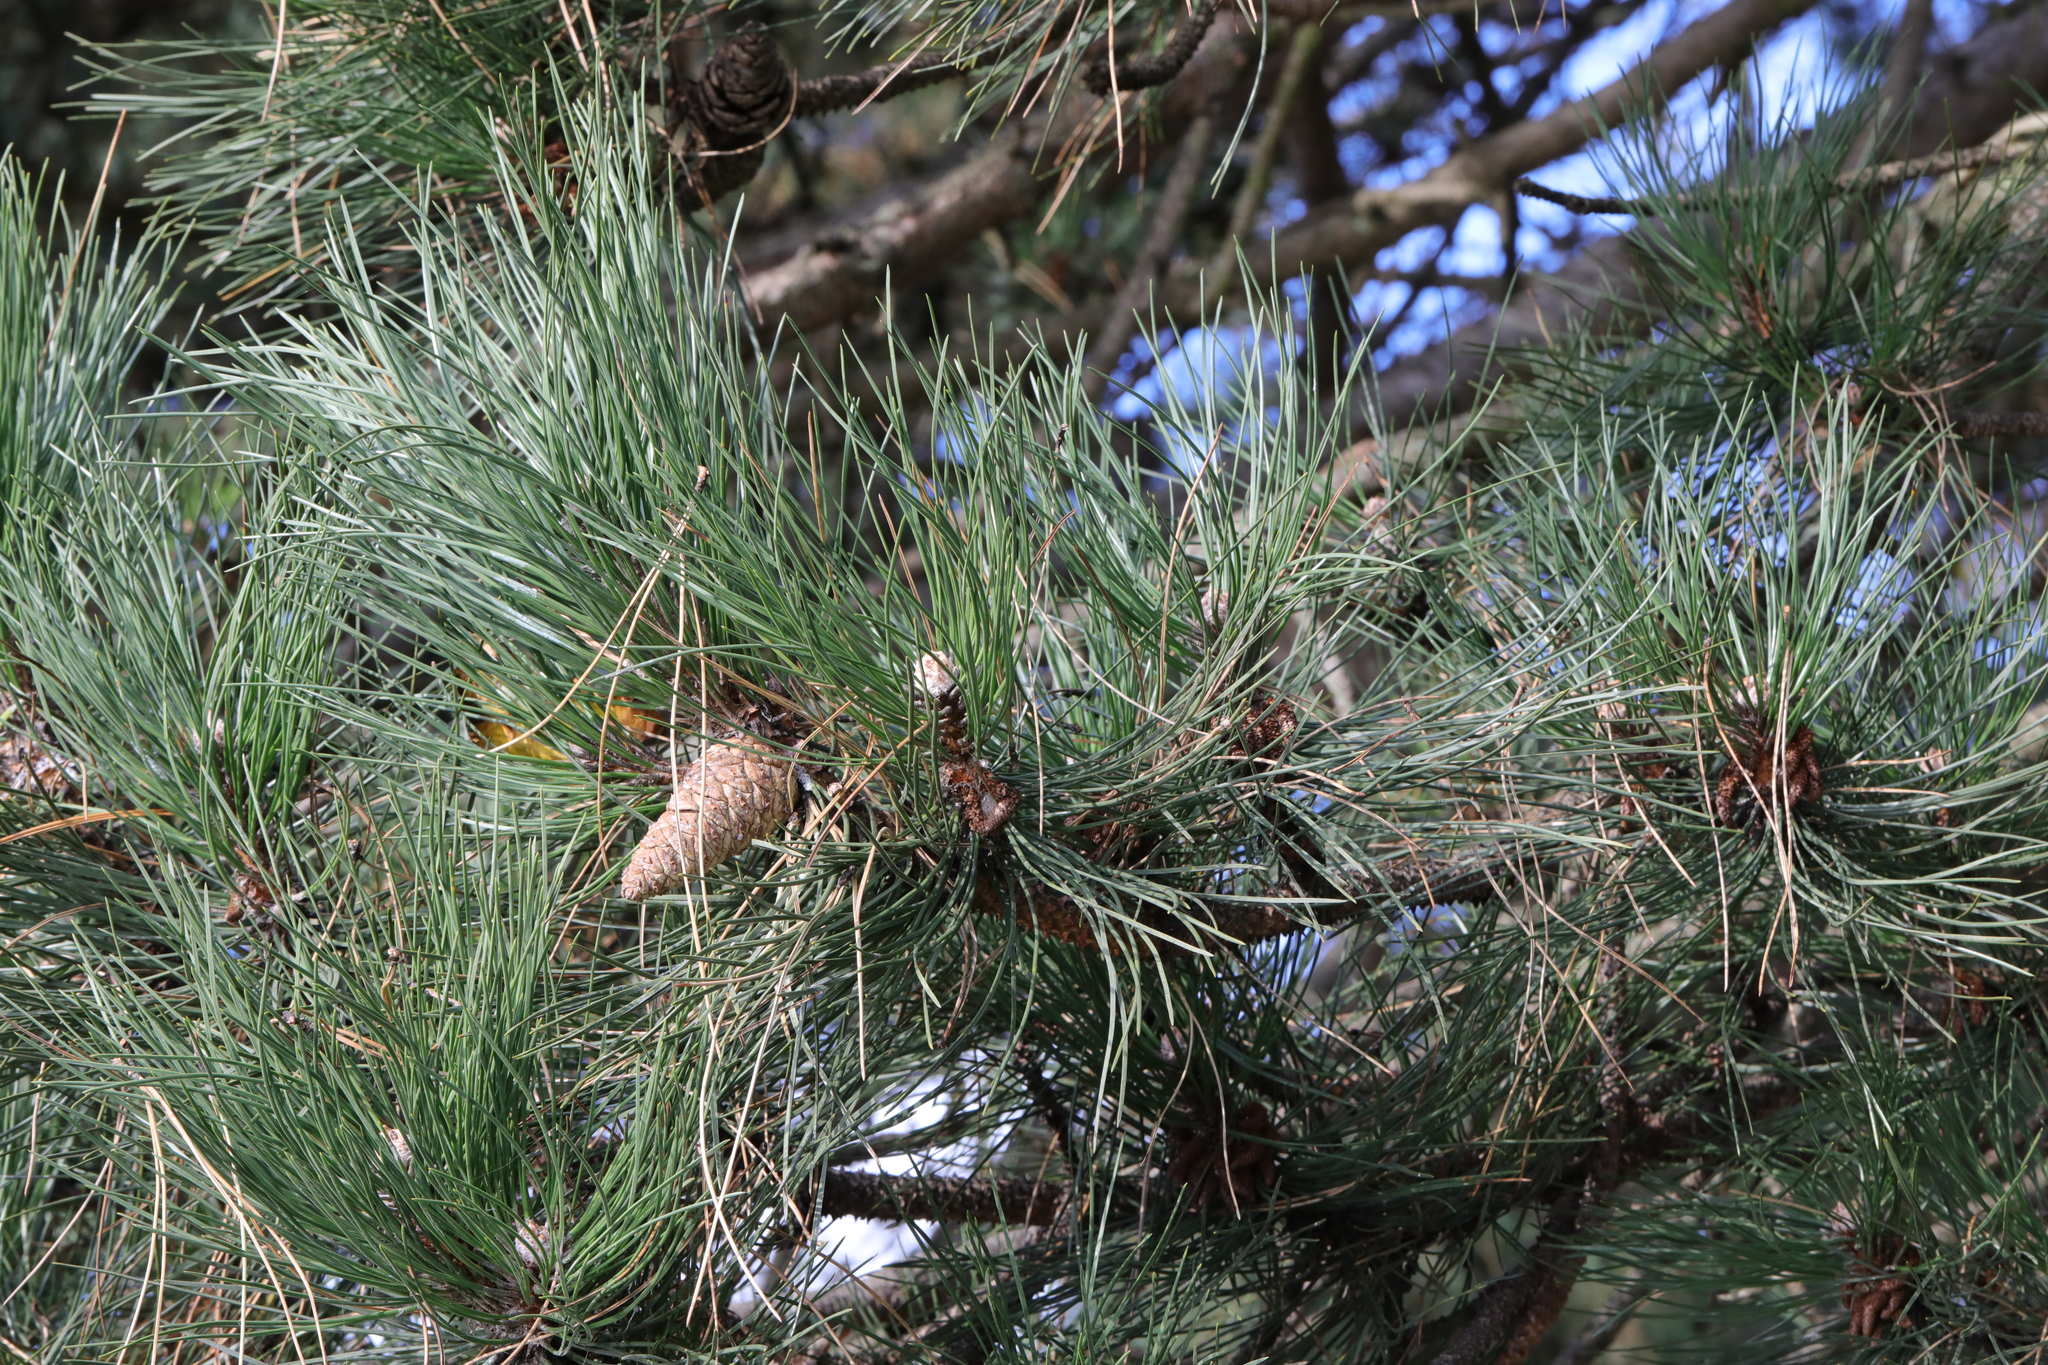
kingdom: Plantae
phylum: Tracheophyta
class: Pinopsida
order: Pinales
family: Pinaceae
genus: Pinus
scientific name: Pinus nigra
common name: Austrian pine
